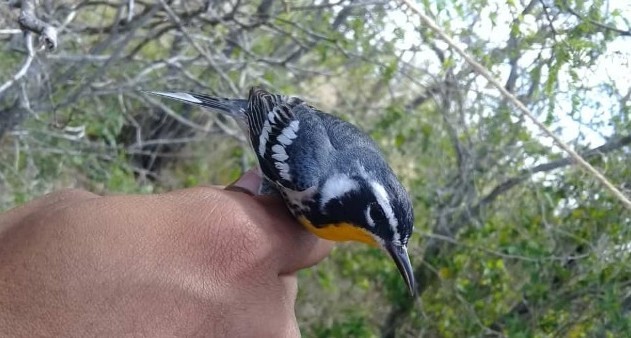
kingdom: Animalia
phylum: Chordata
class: Aves
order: Passeriformes
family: Parulidae
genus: Setophaga
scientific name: Setophaga dominica
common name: Yellow-throated warbler
